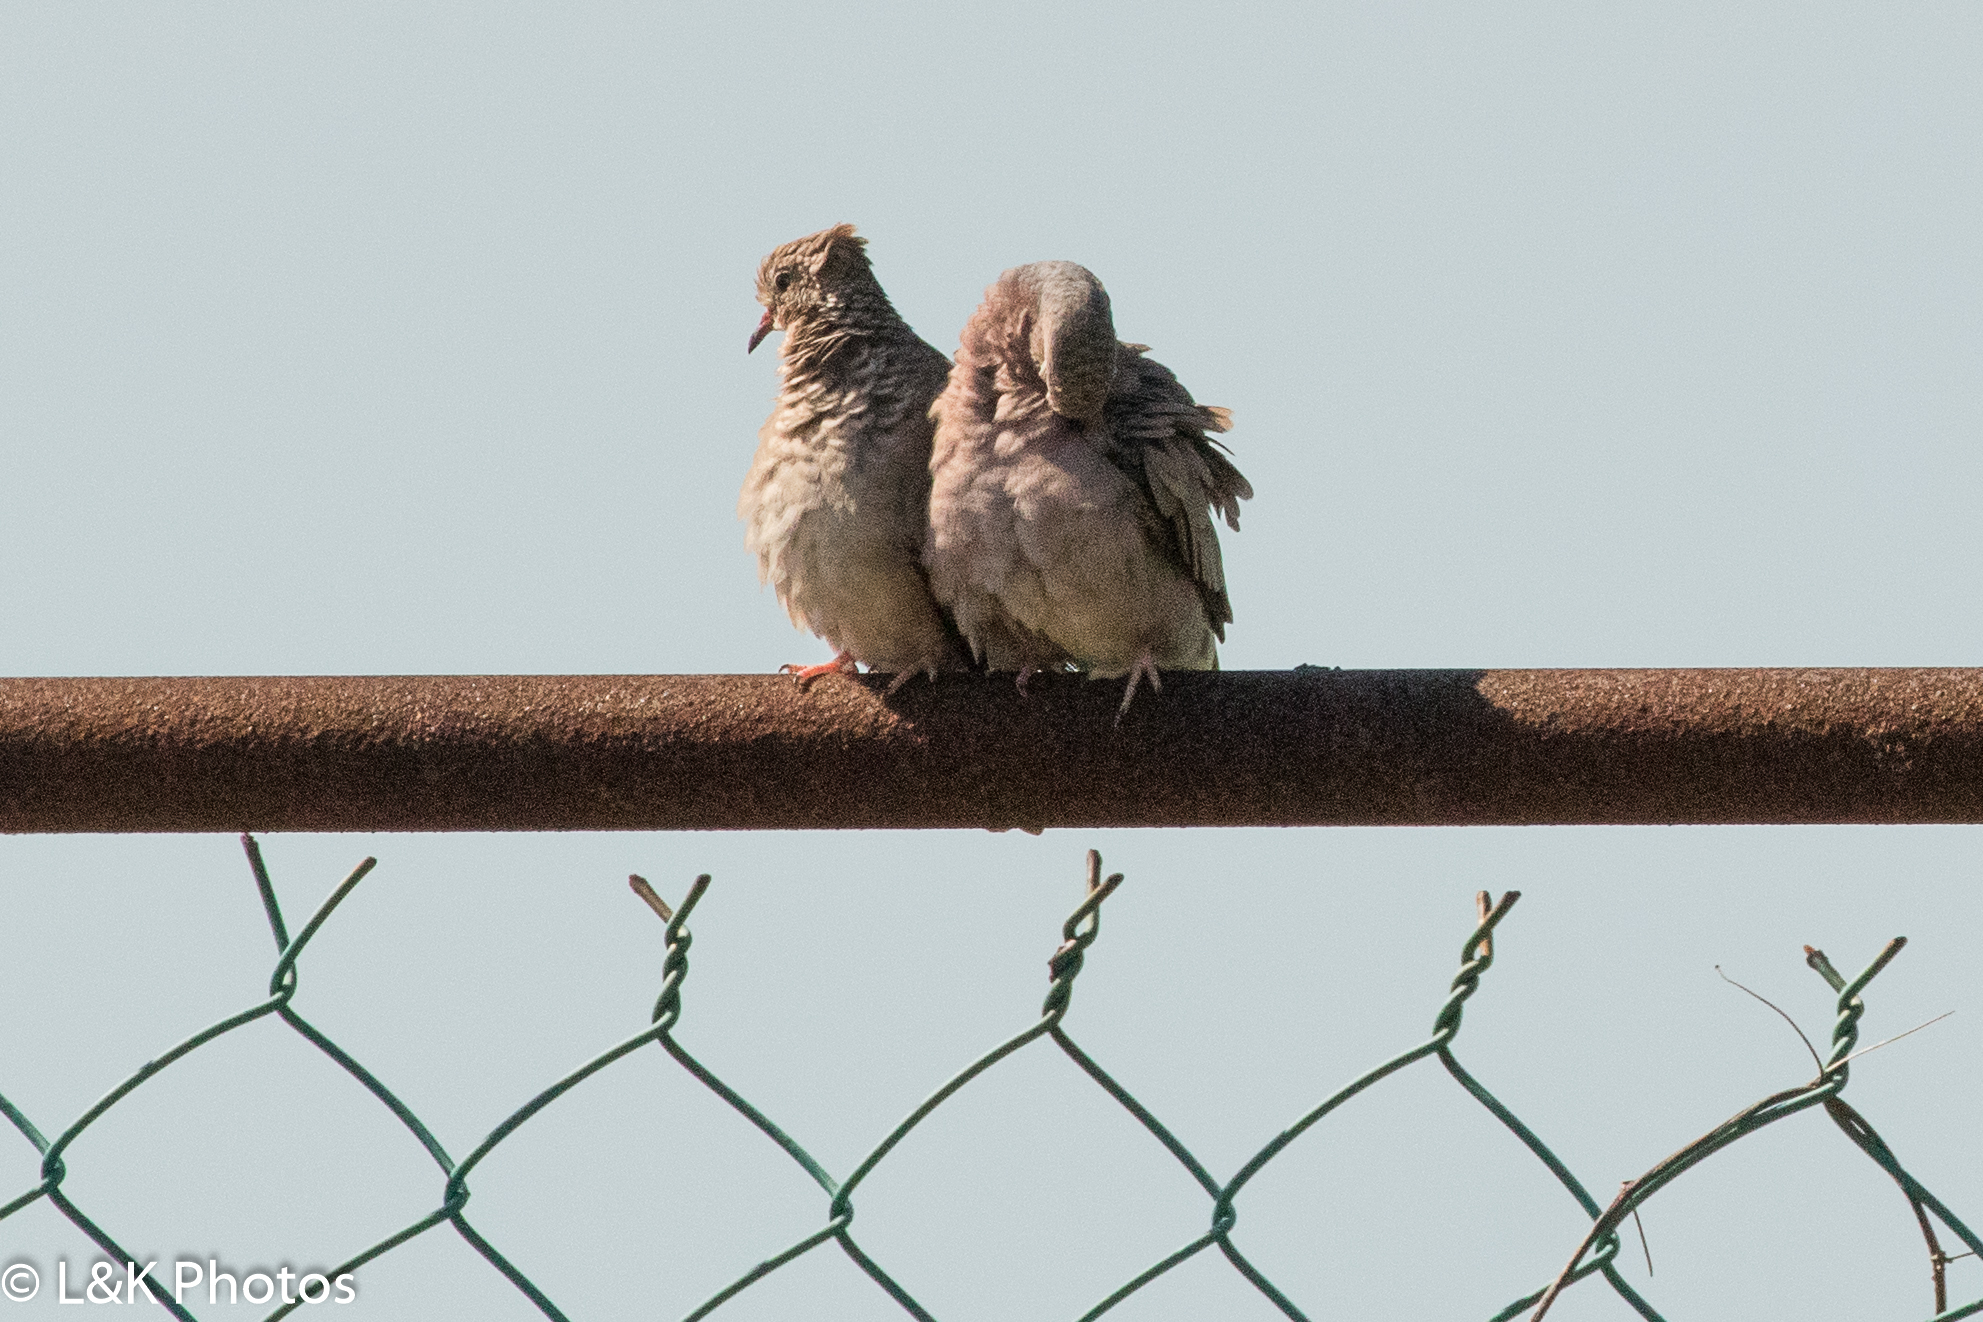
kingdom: Animalia
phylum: Chordata
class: Aves
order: Columbiformes
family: Columbidae
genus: Columbina
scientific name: Columbina passerina
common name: Common ground-dove
